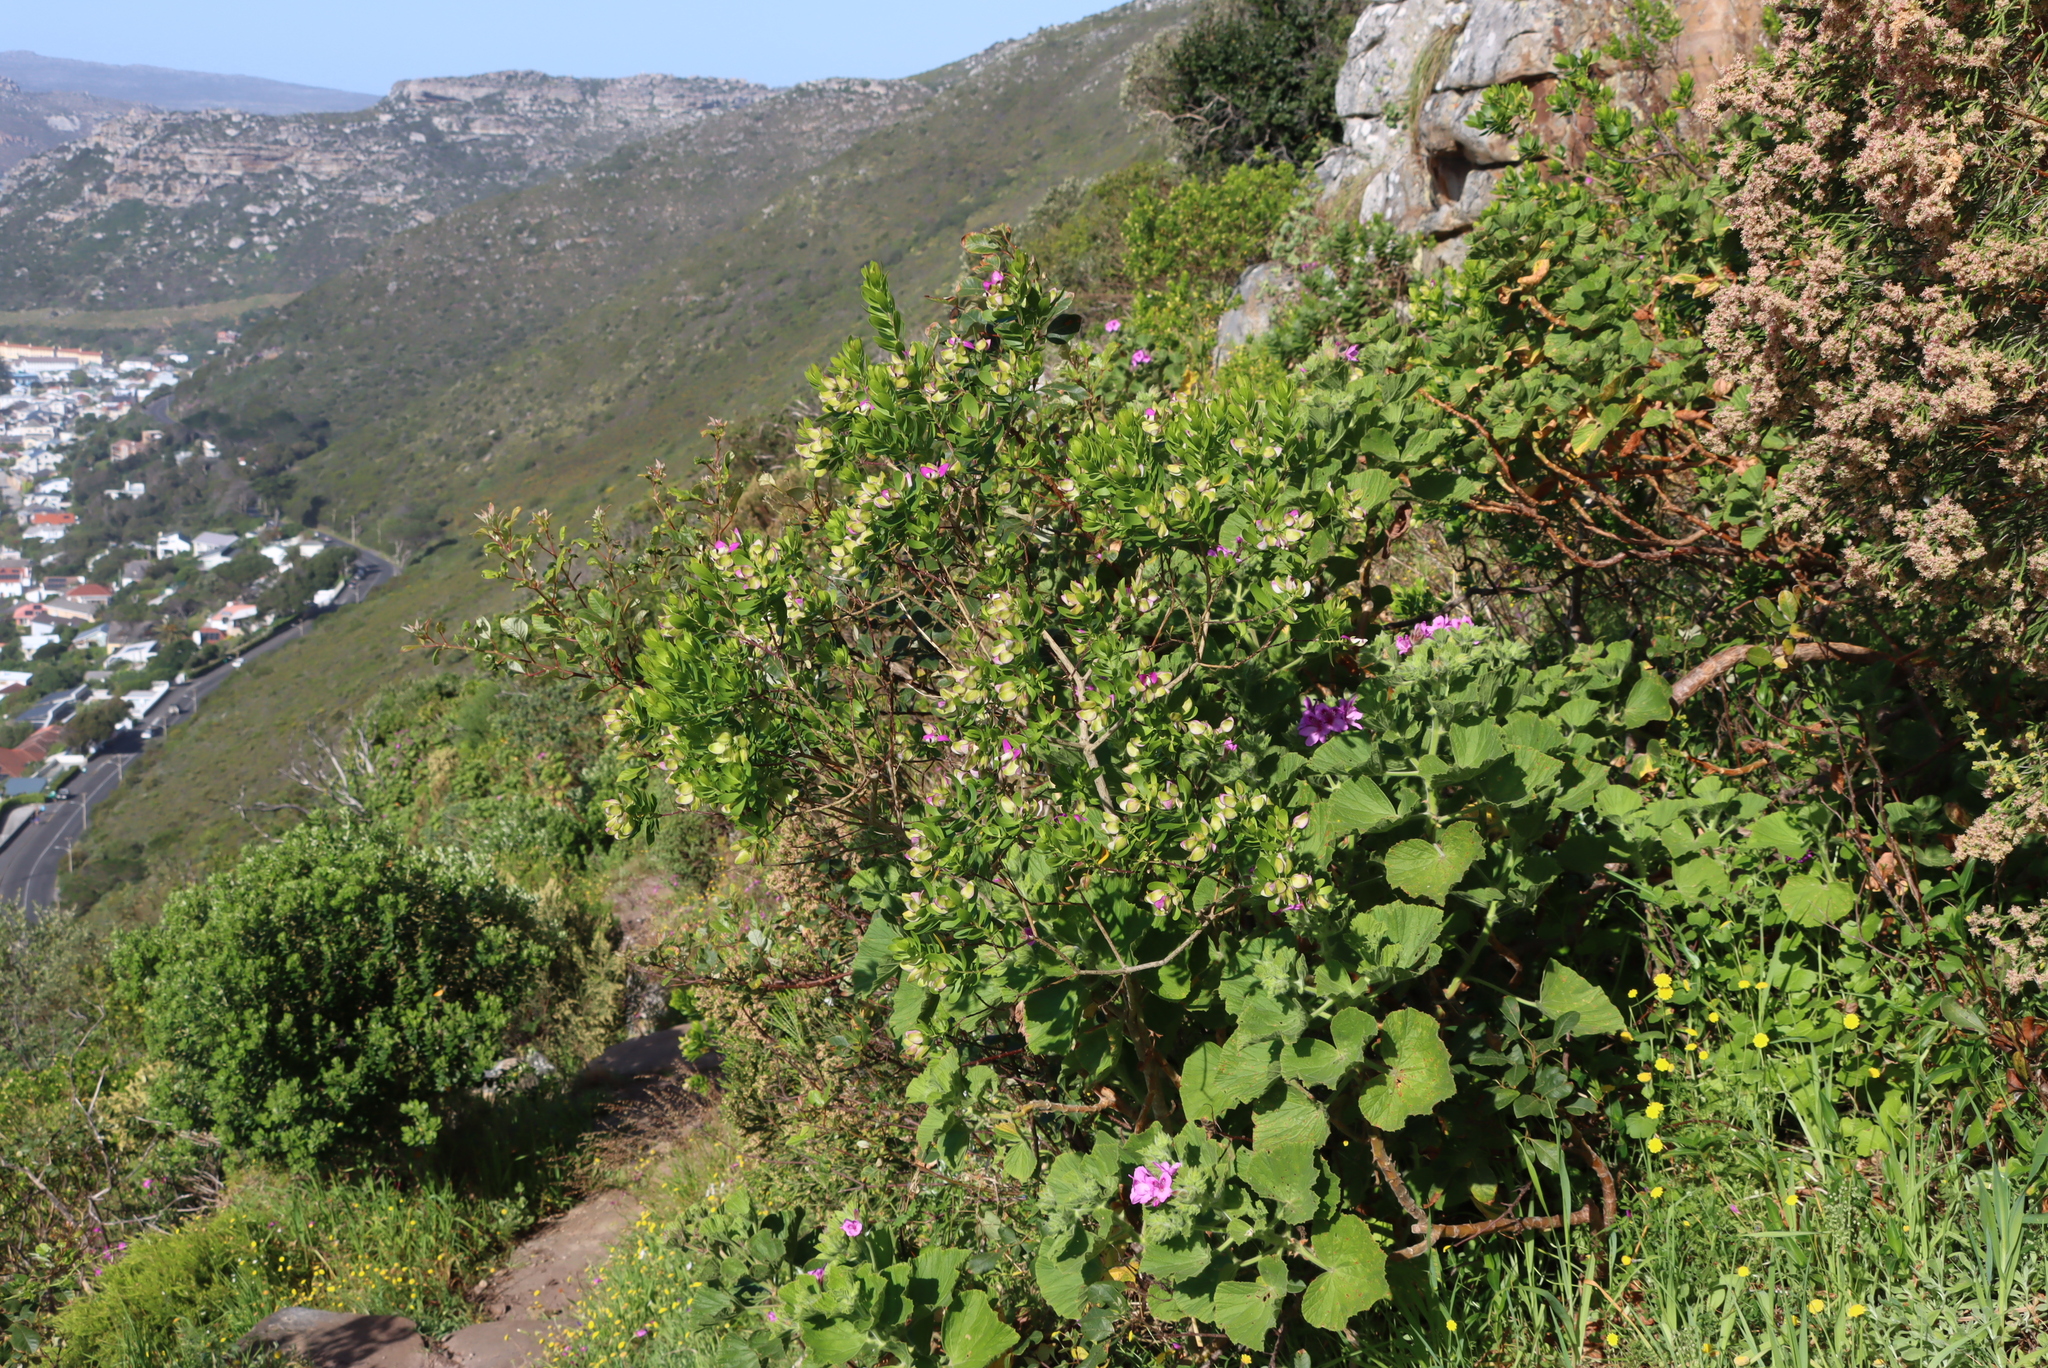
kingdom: Plantae
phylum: Tracheophyta
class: Magnoliopsida
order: Fabales
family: Polygalaceae
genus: Polygala
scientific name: Polygala myrtifolia
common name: Myrtle-leaf milkwort
